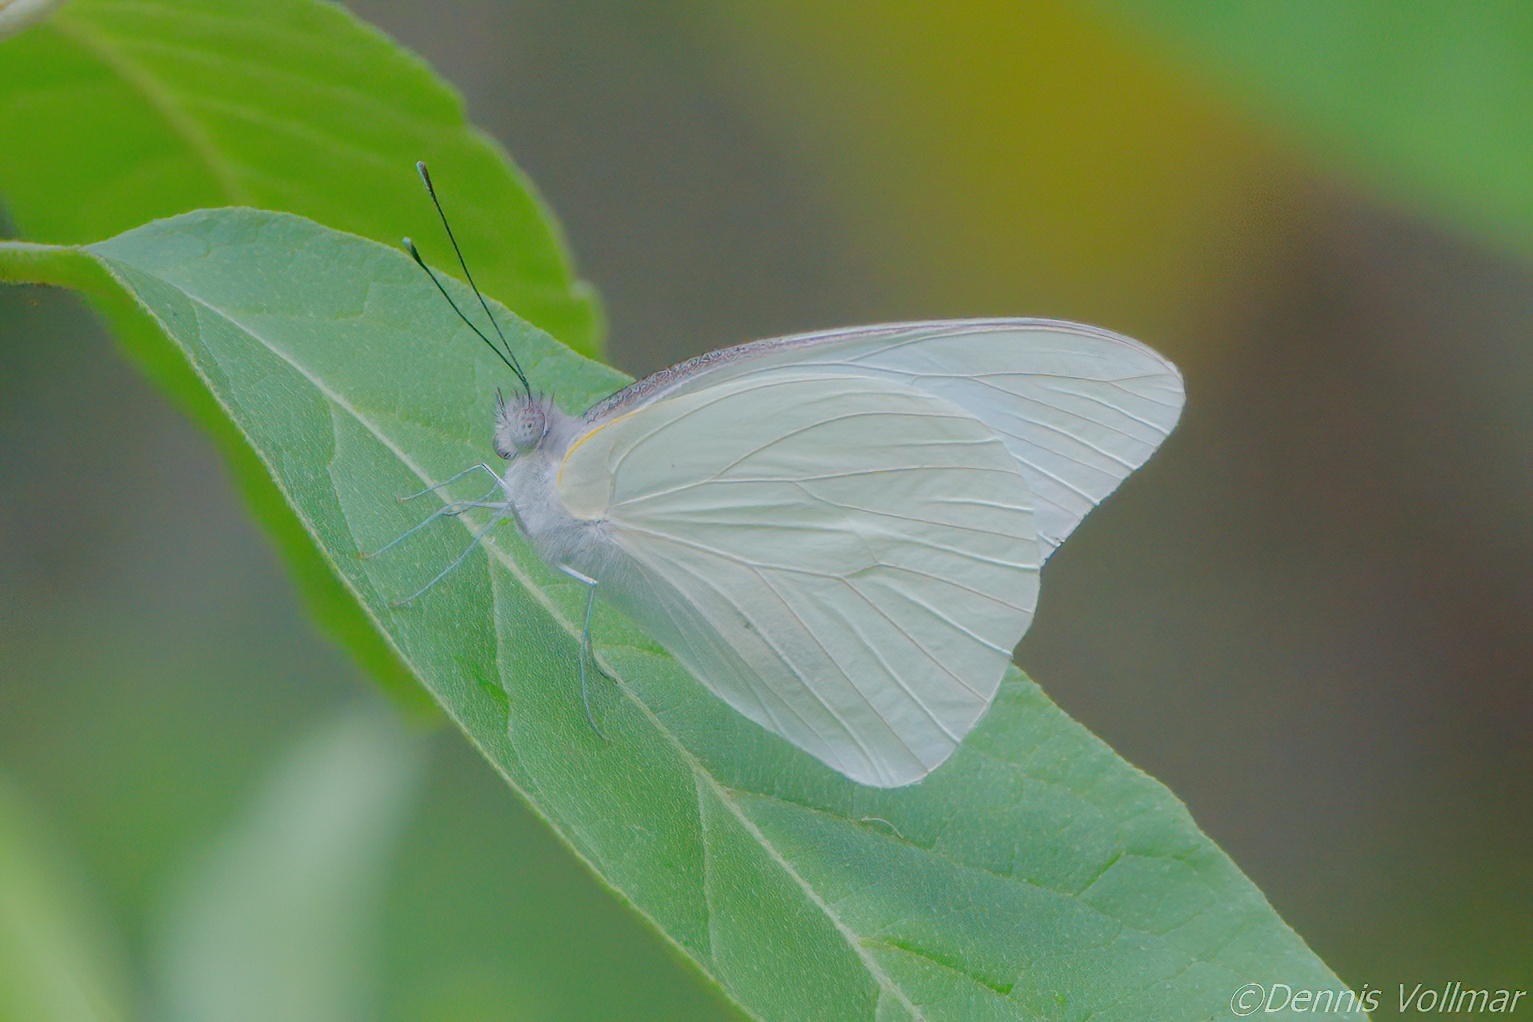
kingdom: Animalia
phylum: Arthropoda
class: Insecta
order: Lepidoptera
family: Pieridae
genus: Glutophrissa
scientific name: Glutophrissa drusilla
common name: Florida white
